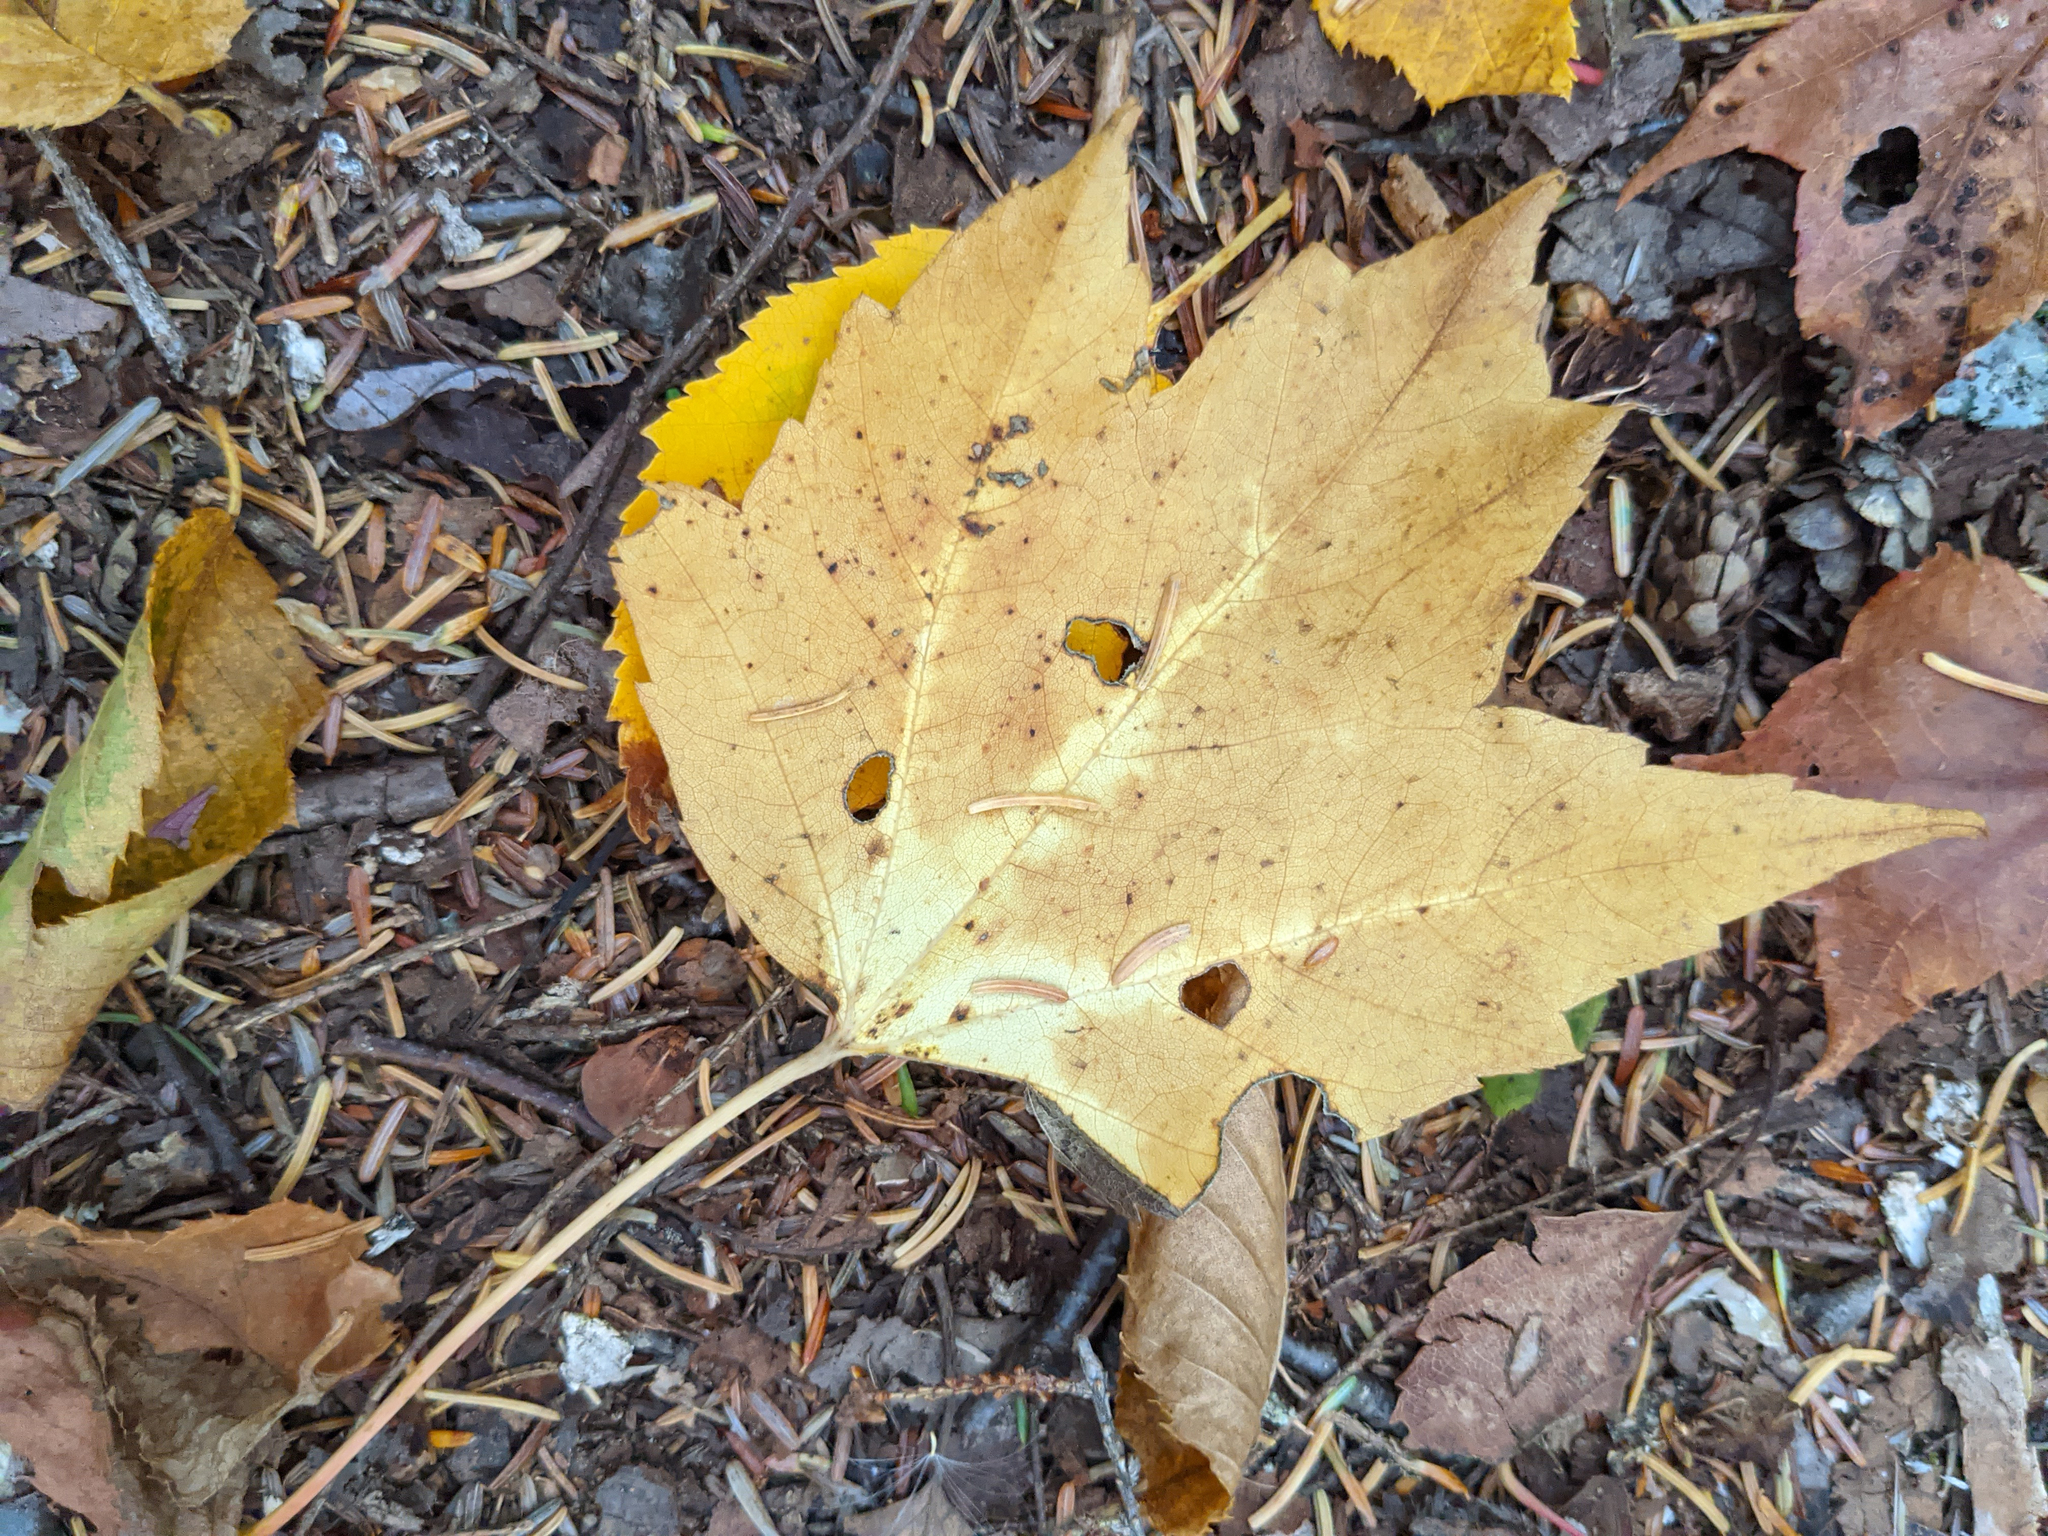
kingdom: Plantae
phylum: Tracheophyta
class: Magnoliopsida
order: Sapindales
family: Sapindaceae
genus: Acer
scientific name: Acer rubrum
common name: Red maple
